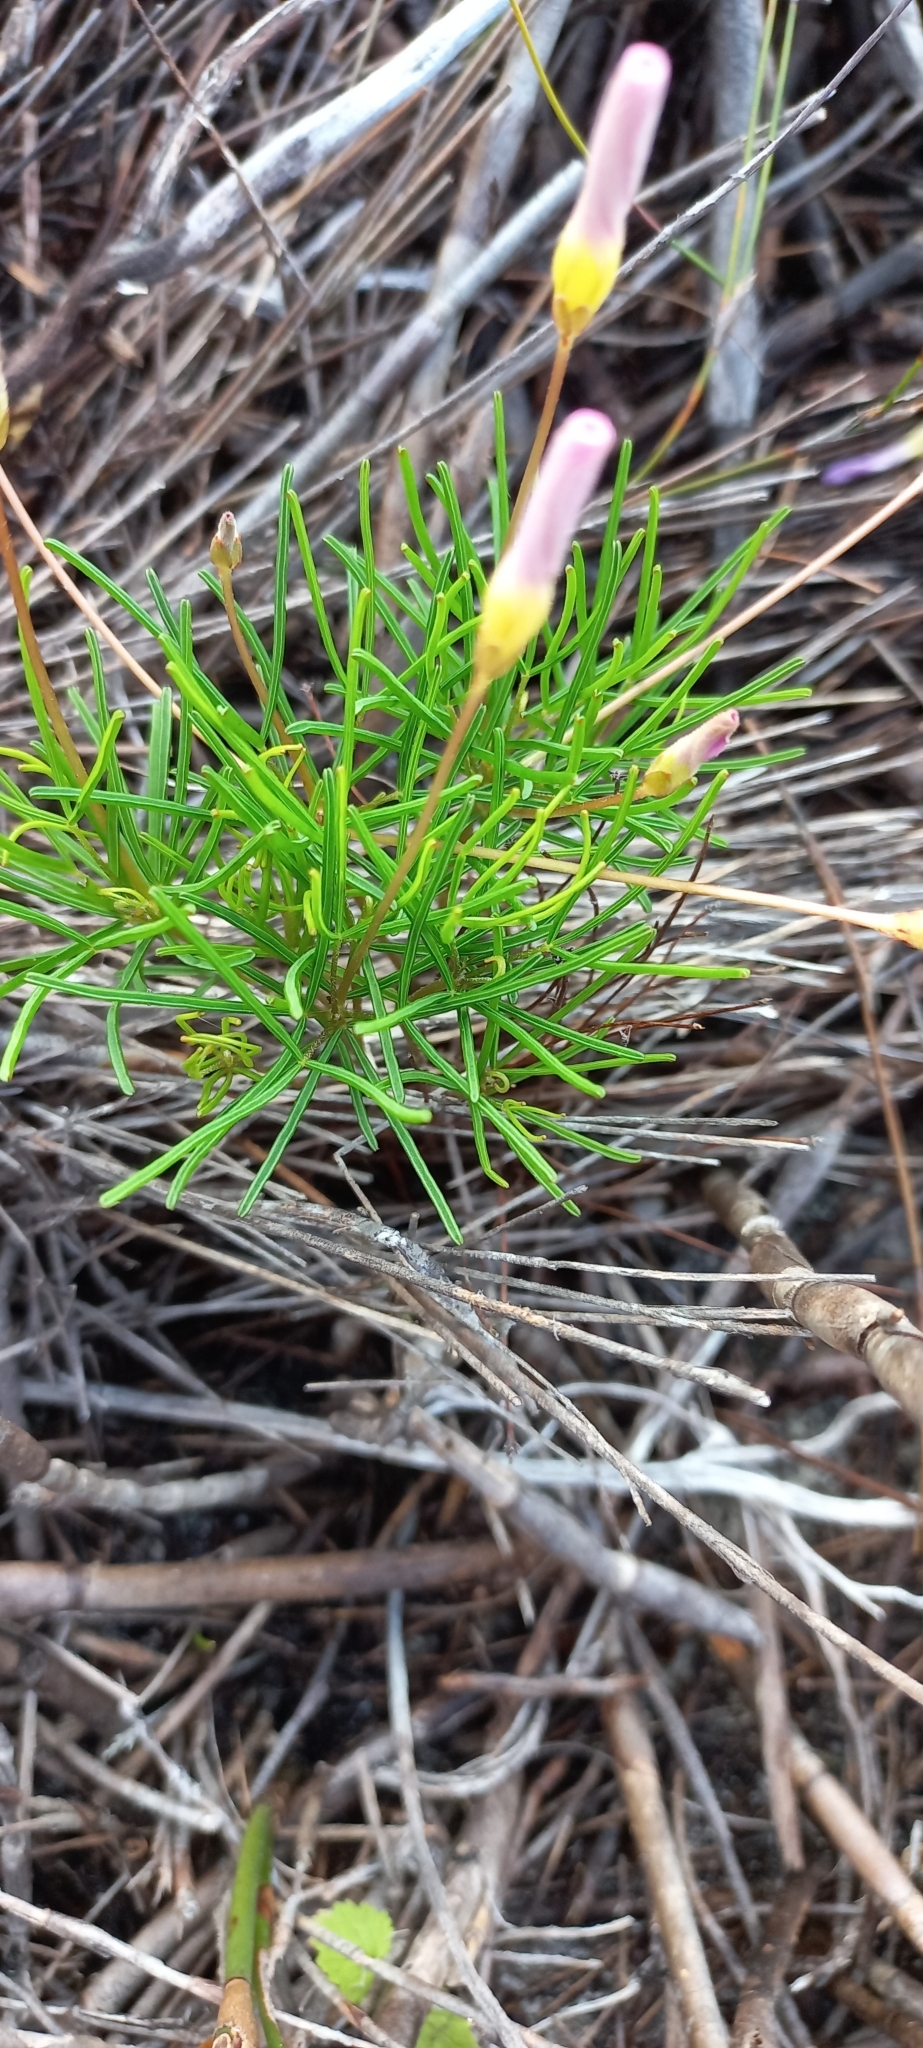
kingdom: Plantae
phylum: Tracheophyta
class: Magnoliopsida
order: Oxalidales
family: Oxalidaceae
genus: Oxalis
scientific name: Oxalis polyphylla
